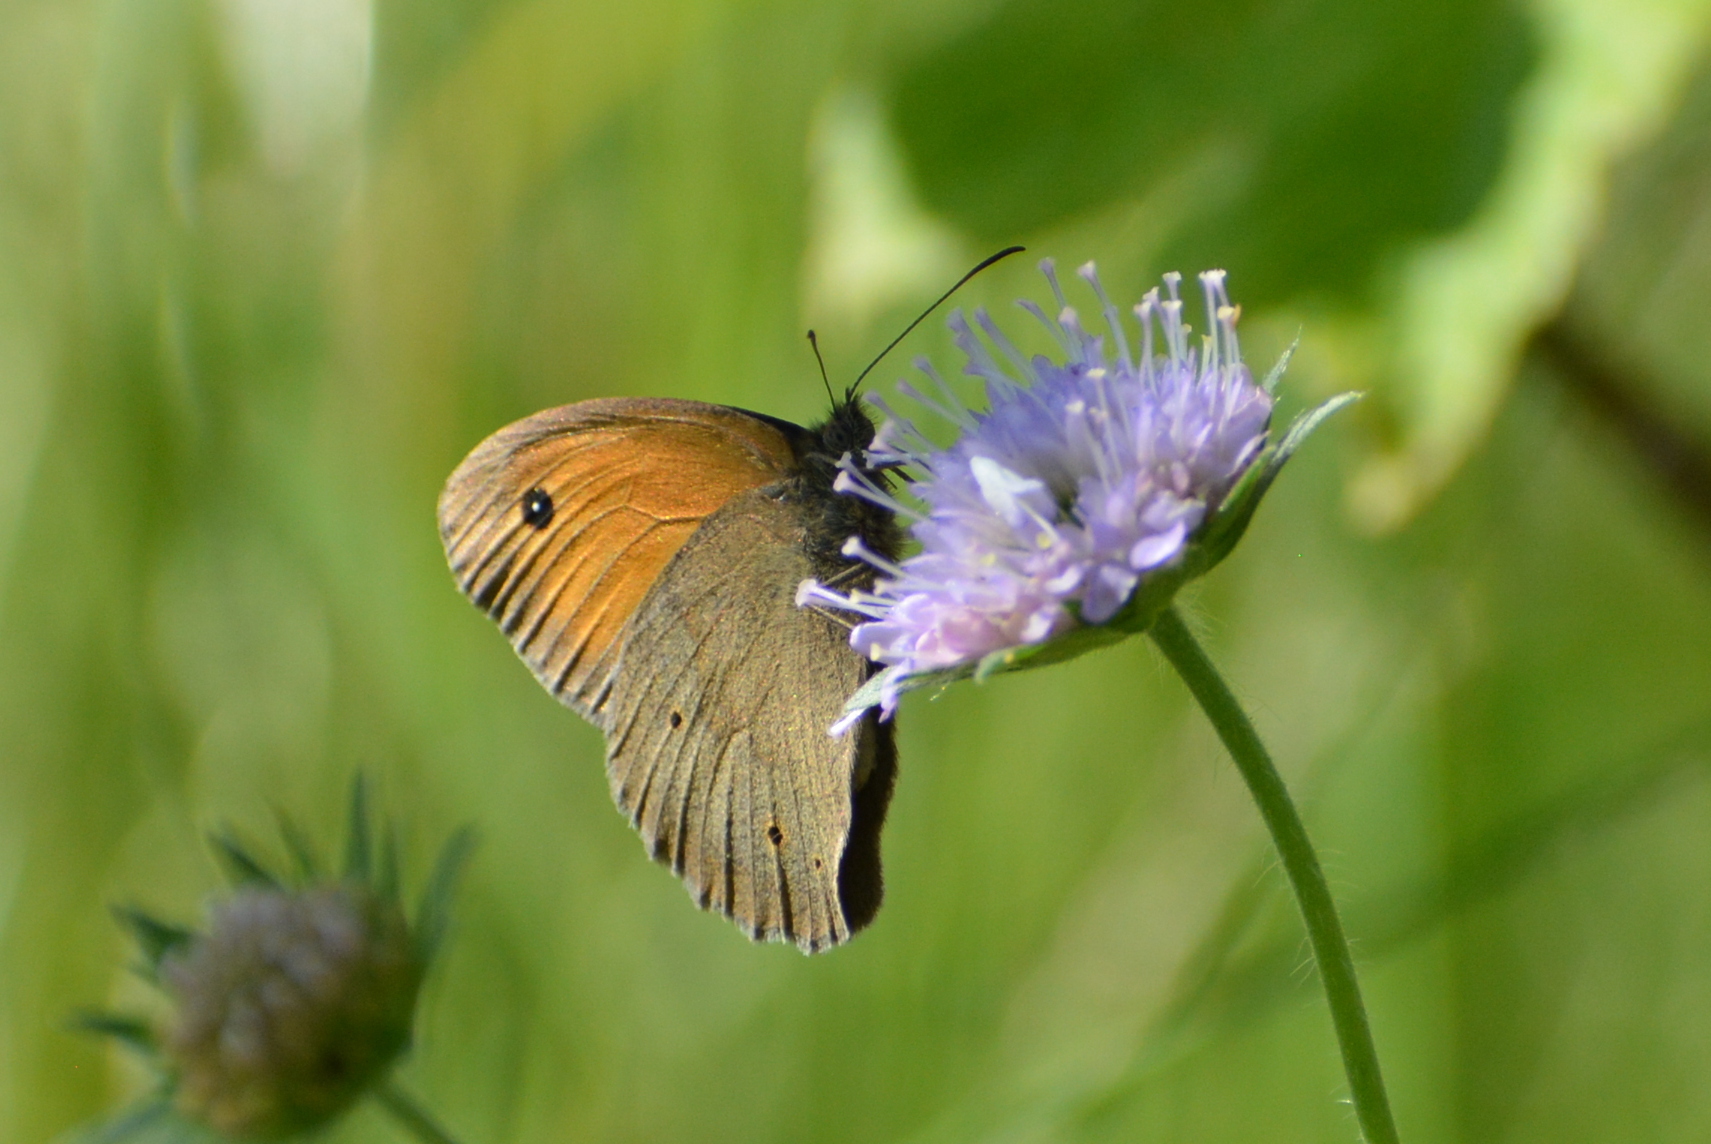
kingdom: Animalia
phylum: Arthropoda
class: Insecta
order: Lepidoptera
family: Nymphalidae
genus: Maniola
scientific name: Maniola jurtina
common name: Meadow brown
